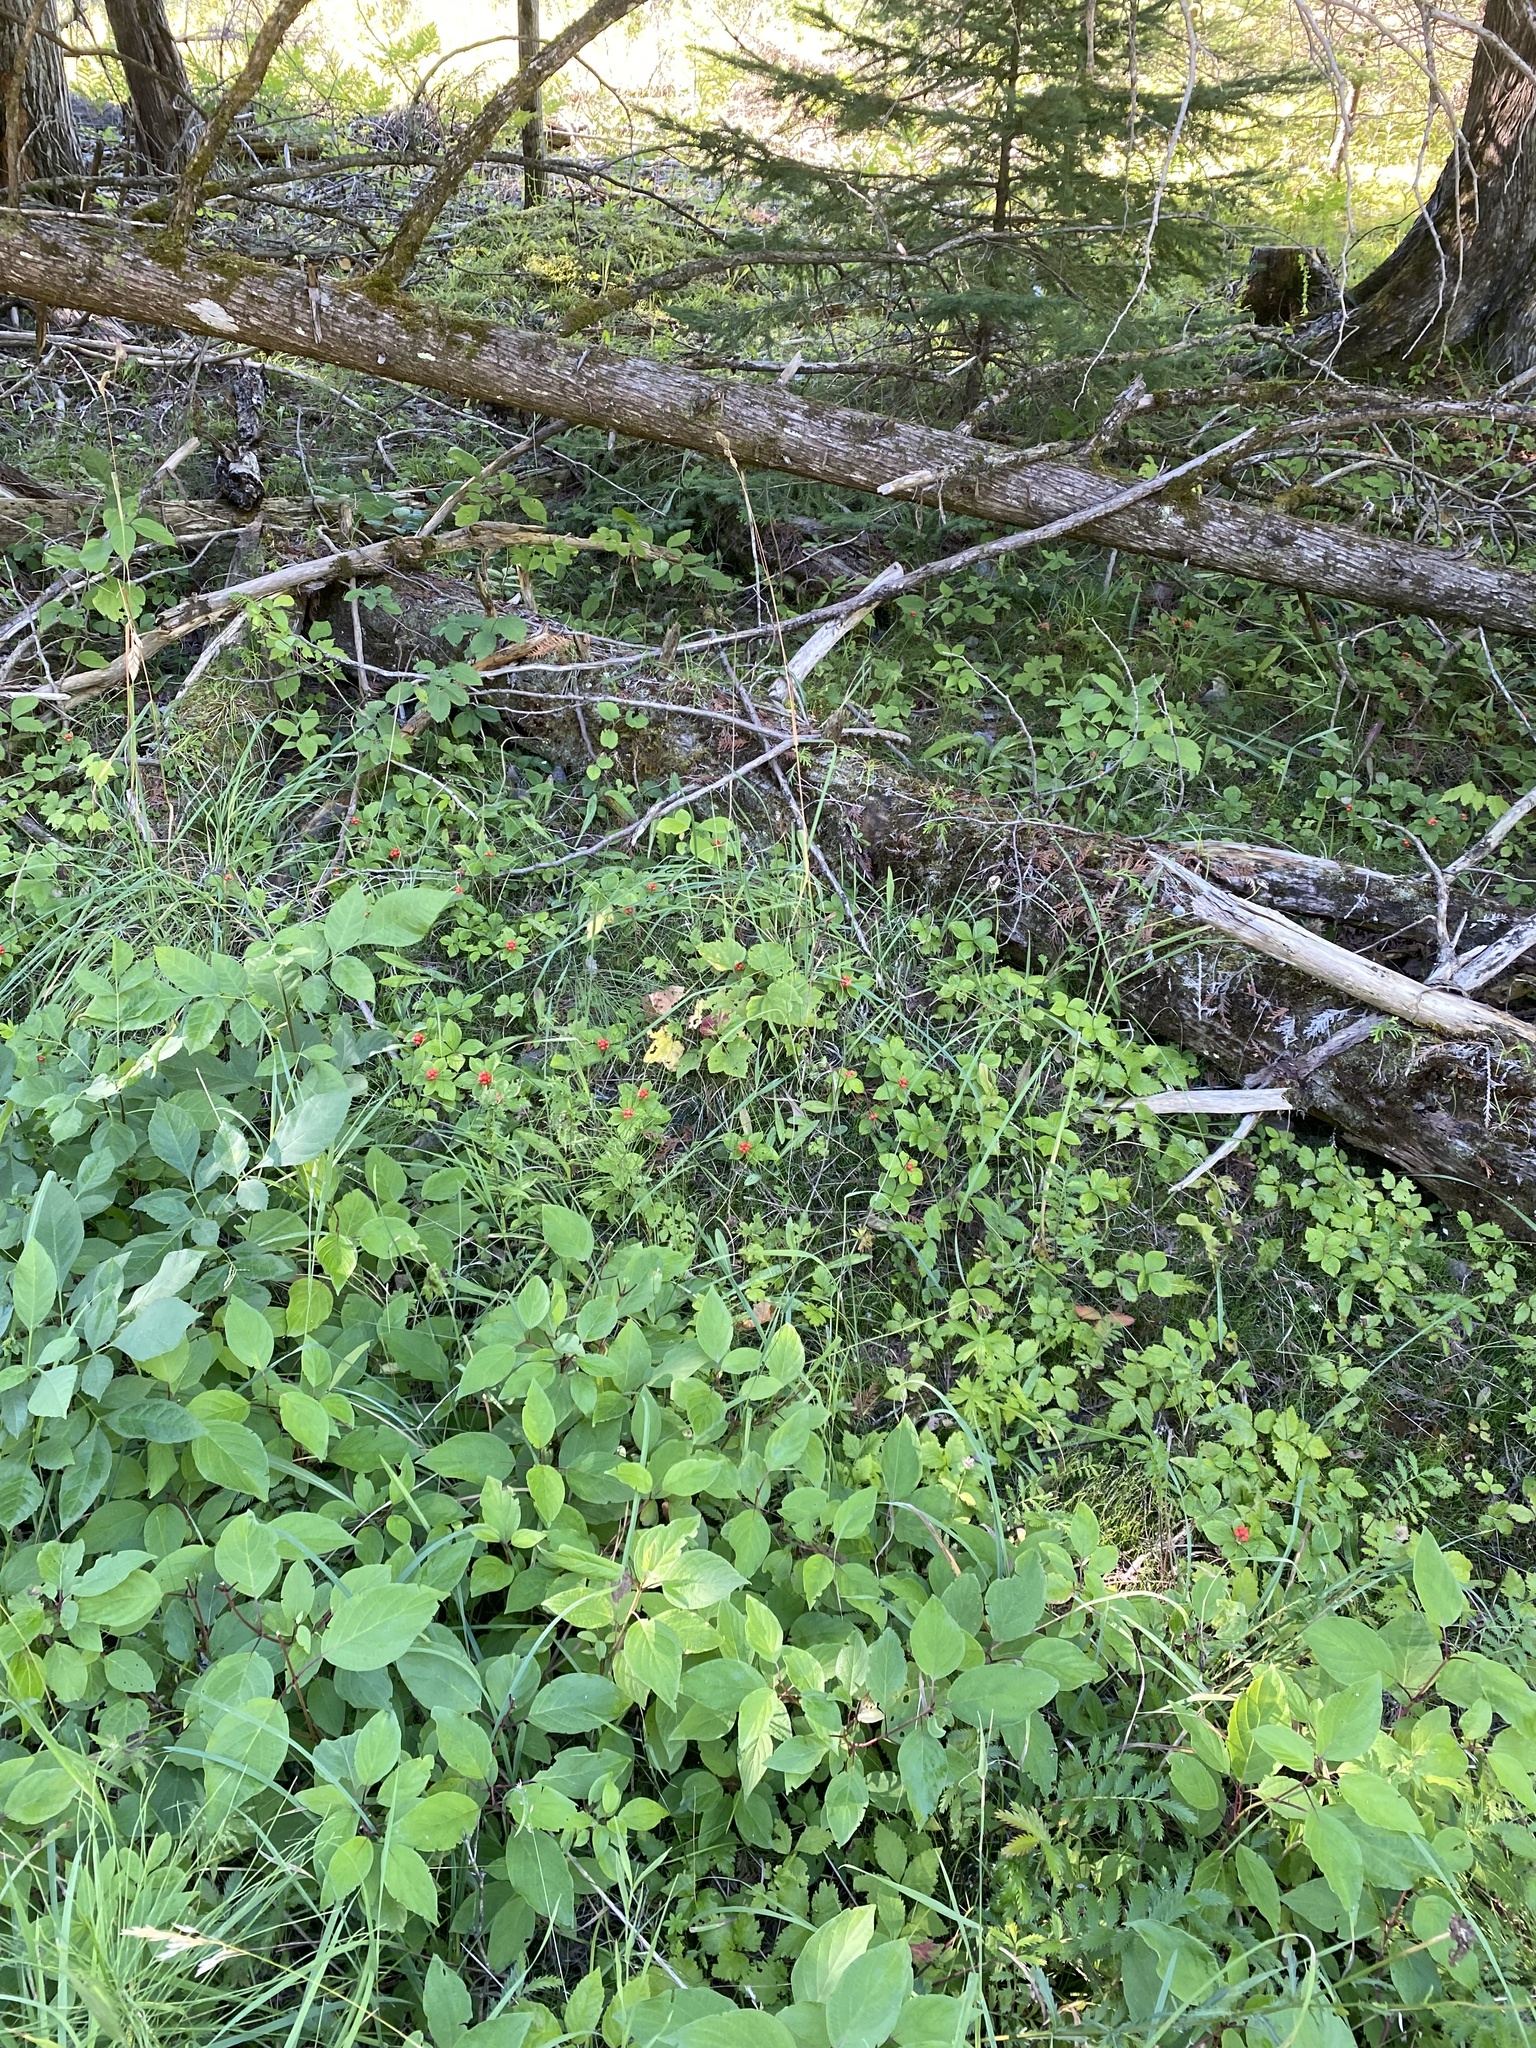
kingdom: Plantae
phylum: Tracheophyta
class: Magnoliopsida
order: Cornales
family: Cornaceae
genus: Cornus
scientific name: Cornus canadensis
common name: Creeping dogwood
